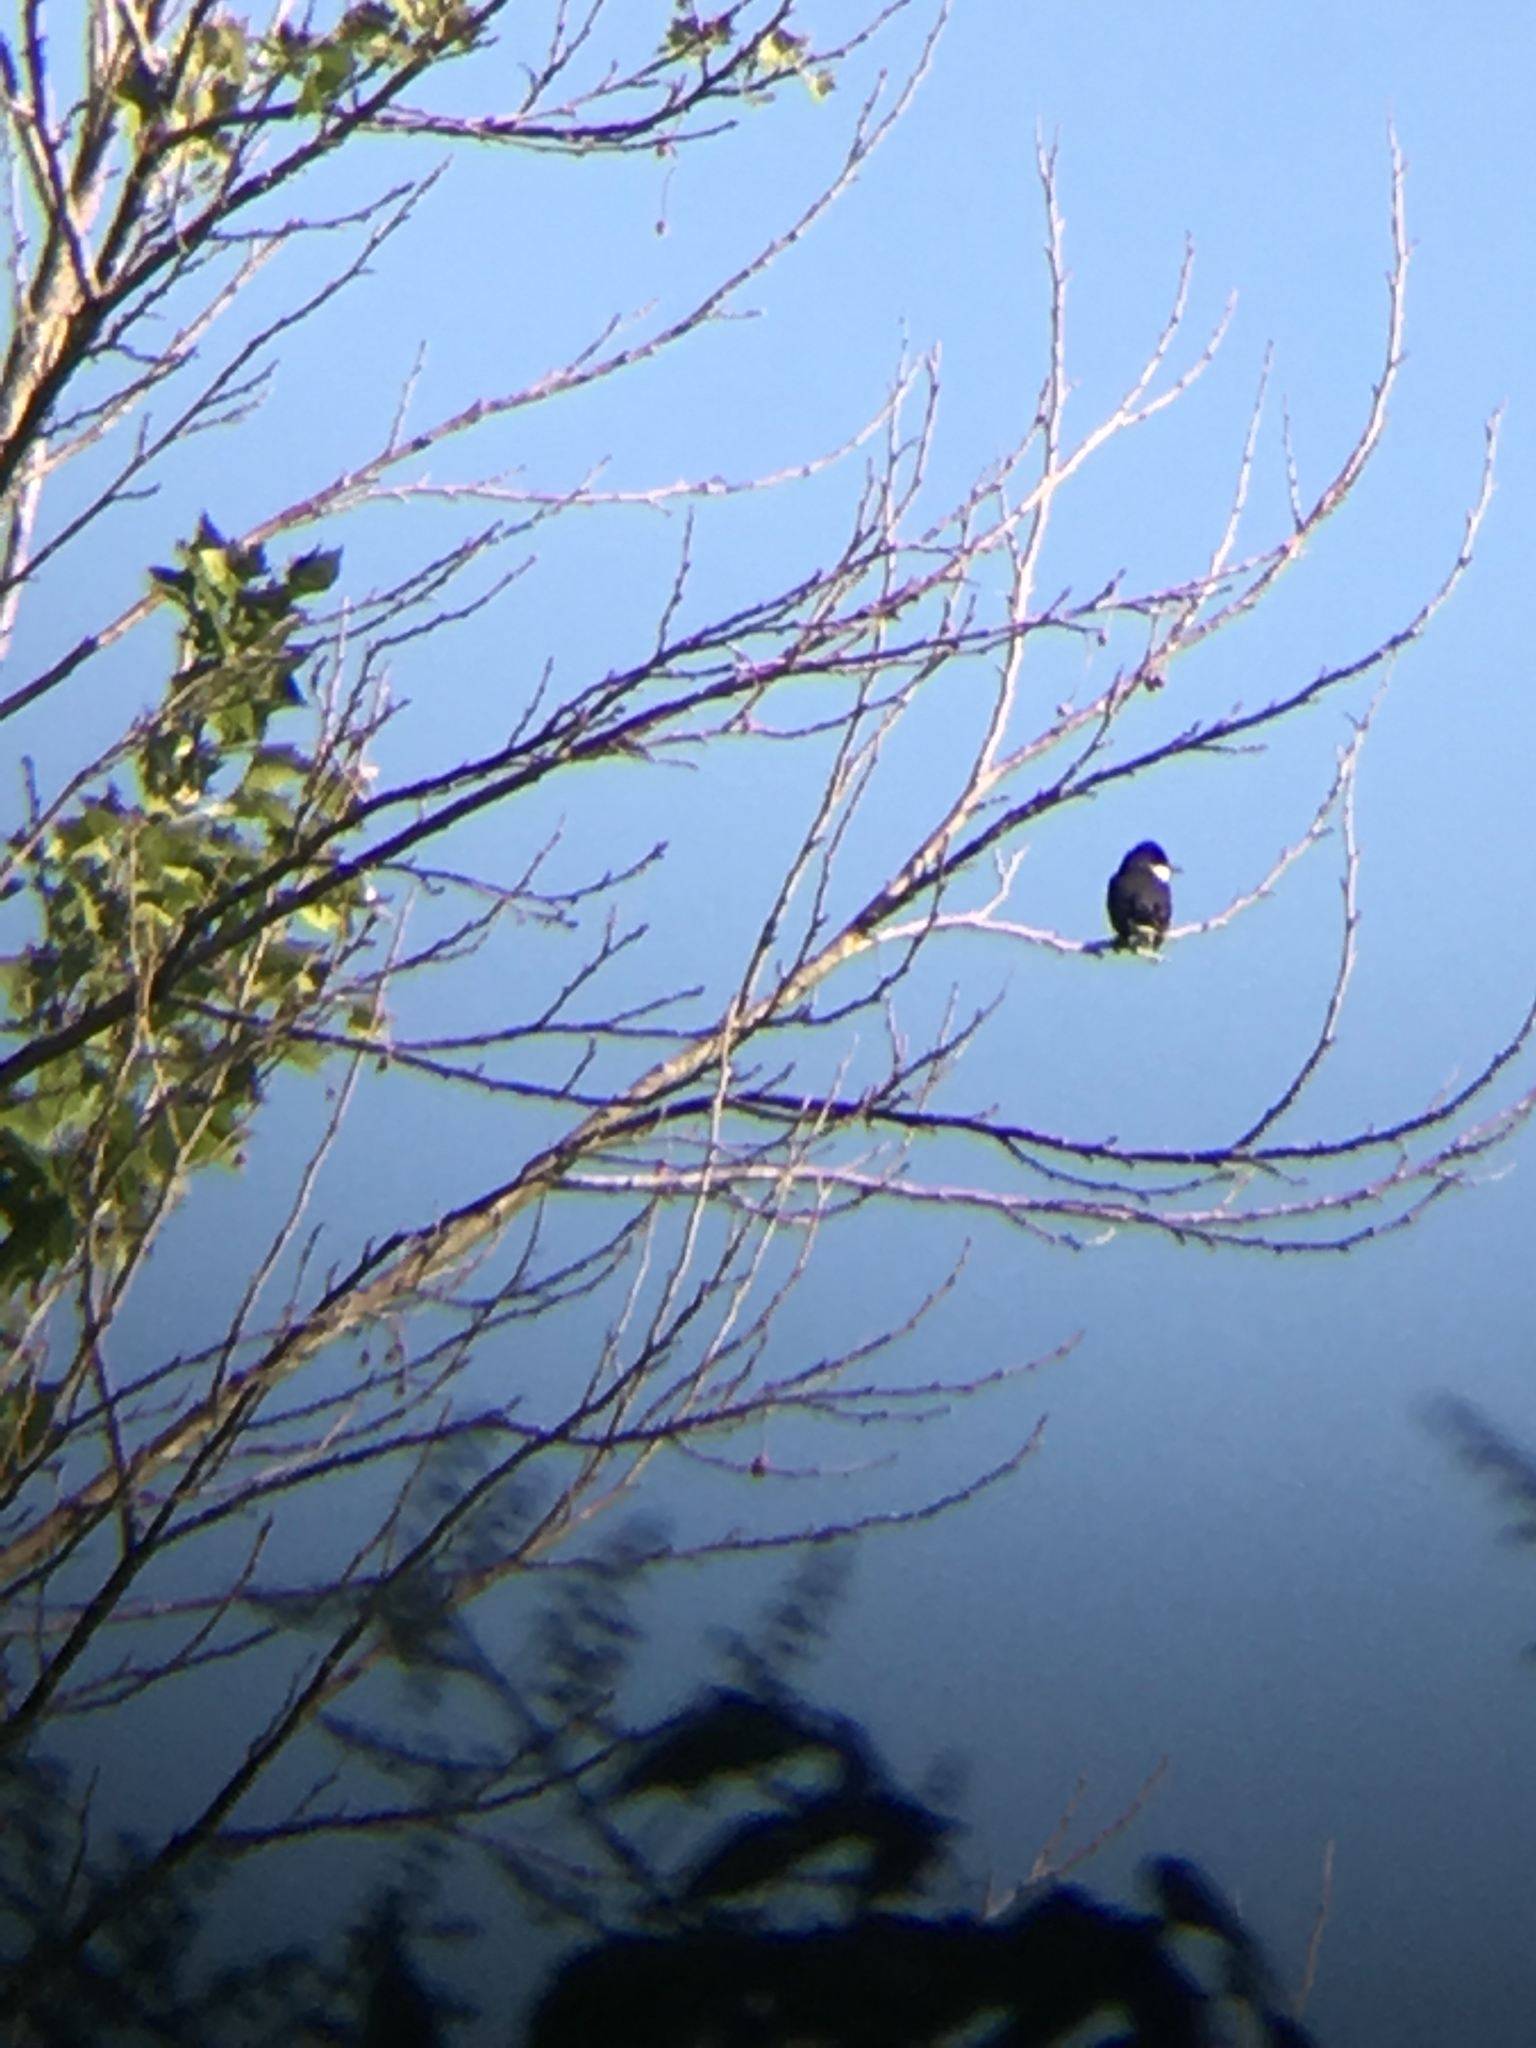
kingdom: Animalia
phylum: Chordata
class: Aves
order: Passeriformes
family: Tyrannidae
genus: Tyrannus
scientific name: Tyrannus tyrannus
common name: Eastern kingbird
